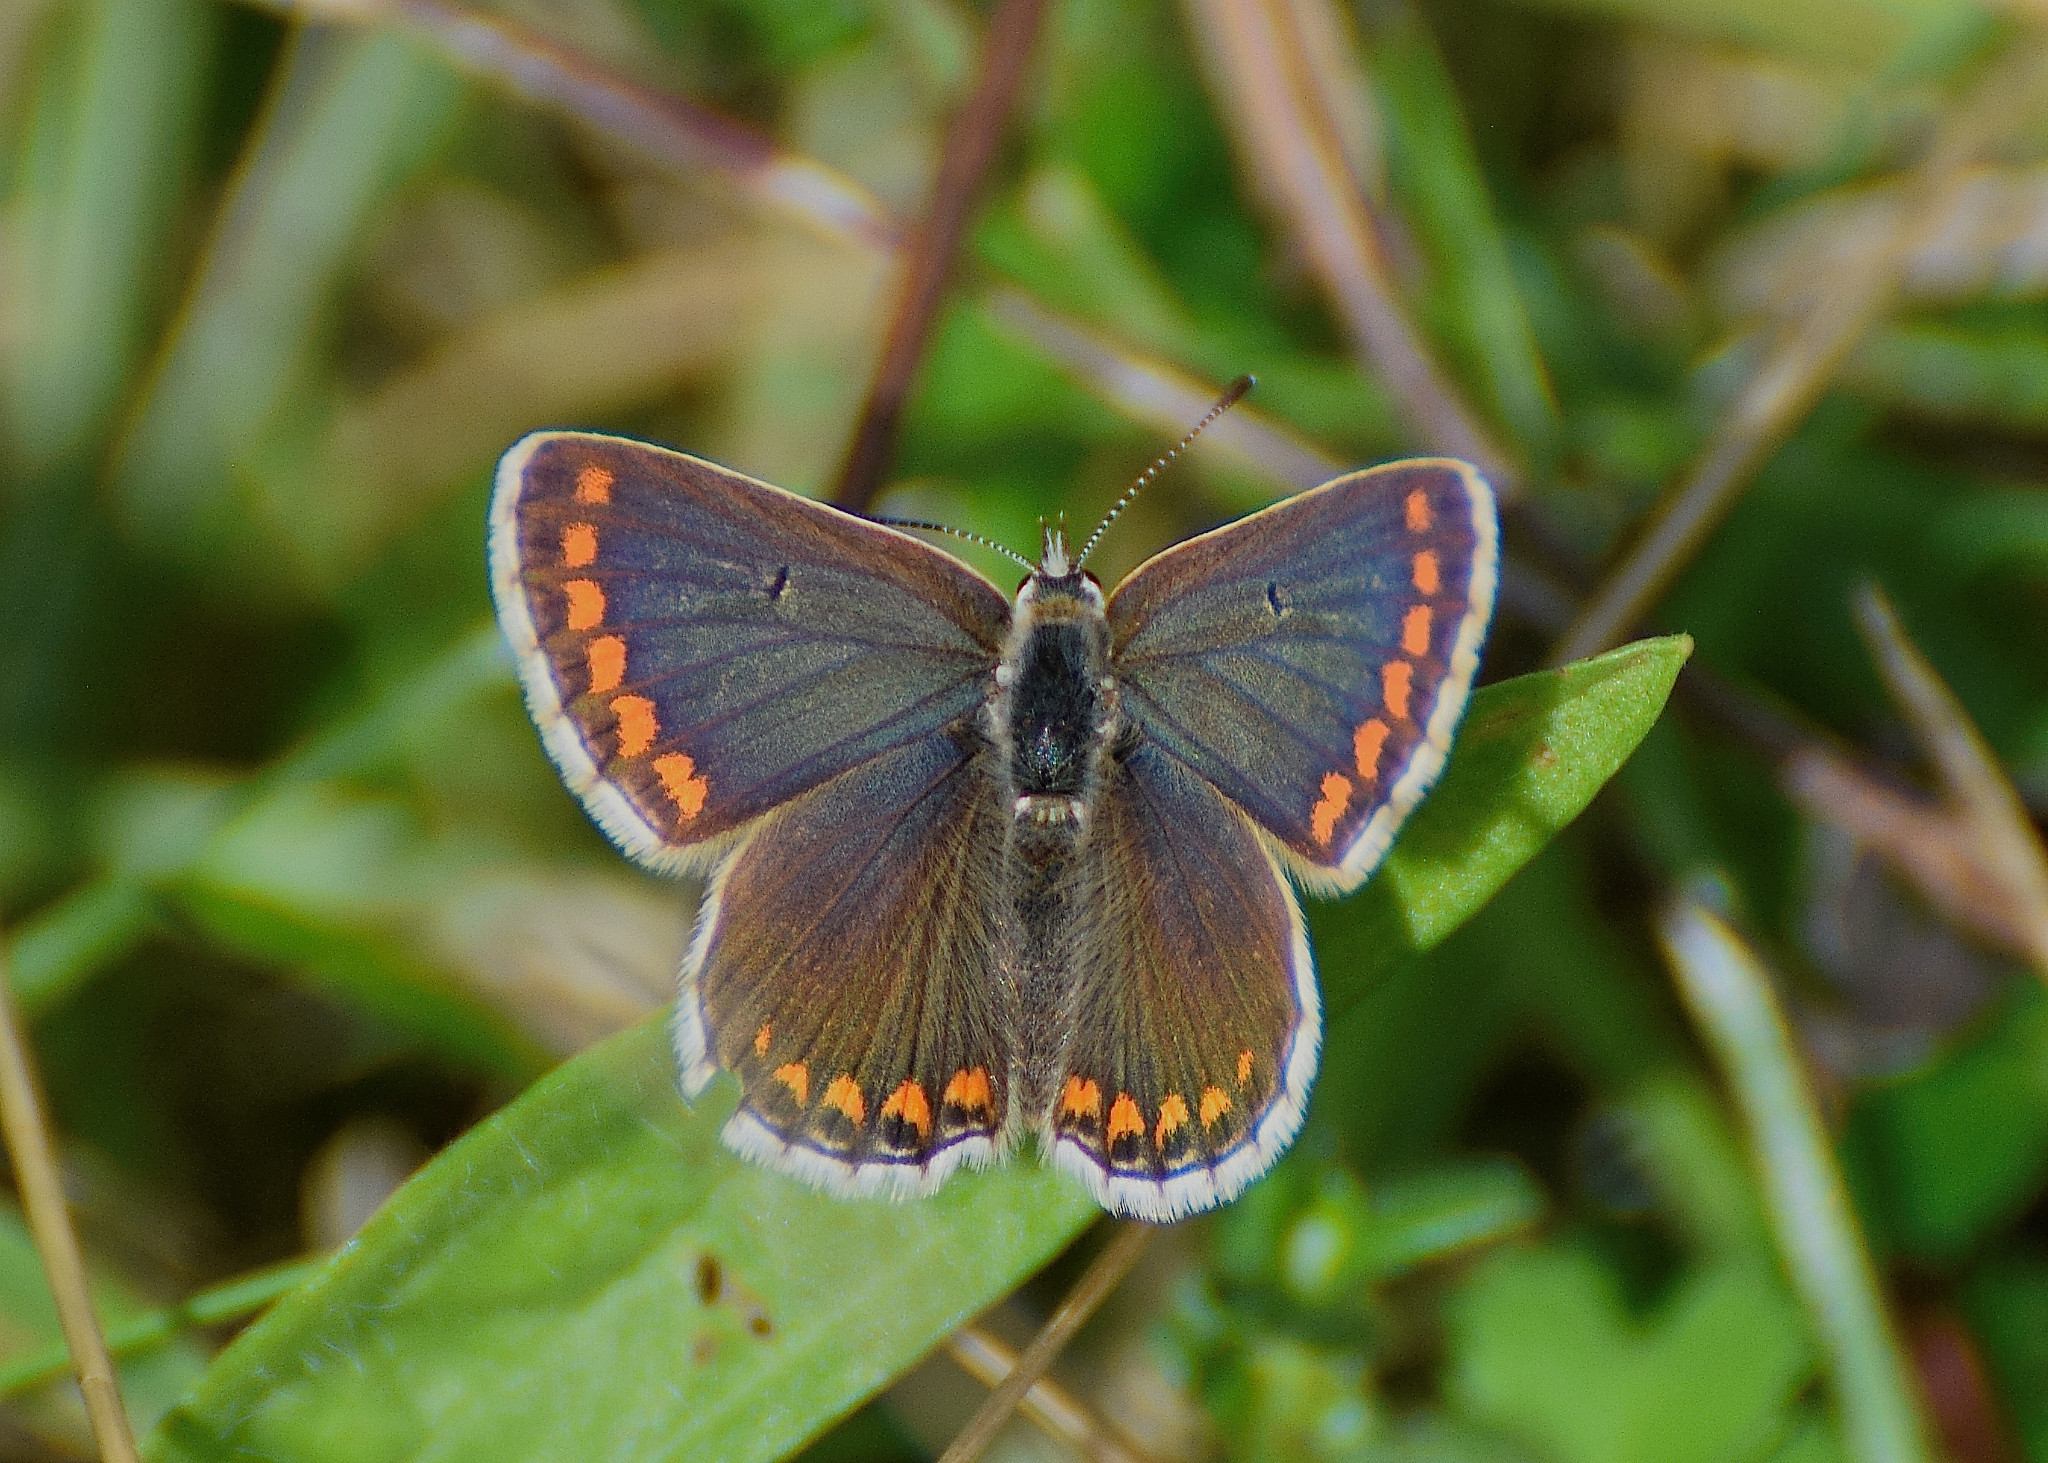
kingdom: Animalia
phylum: Arthropoda
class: Insecta
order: Lepidoptera
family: Lycaenidae
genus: Aricia
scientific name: Aricia agestis
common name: Brown argus
